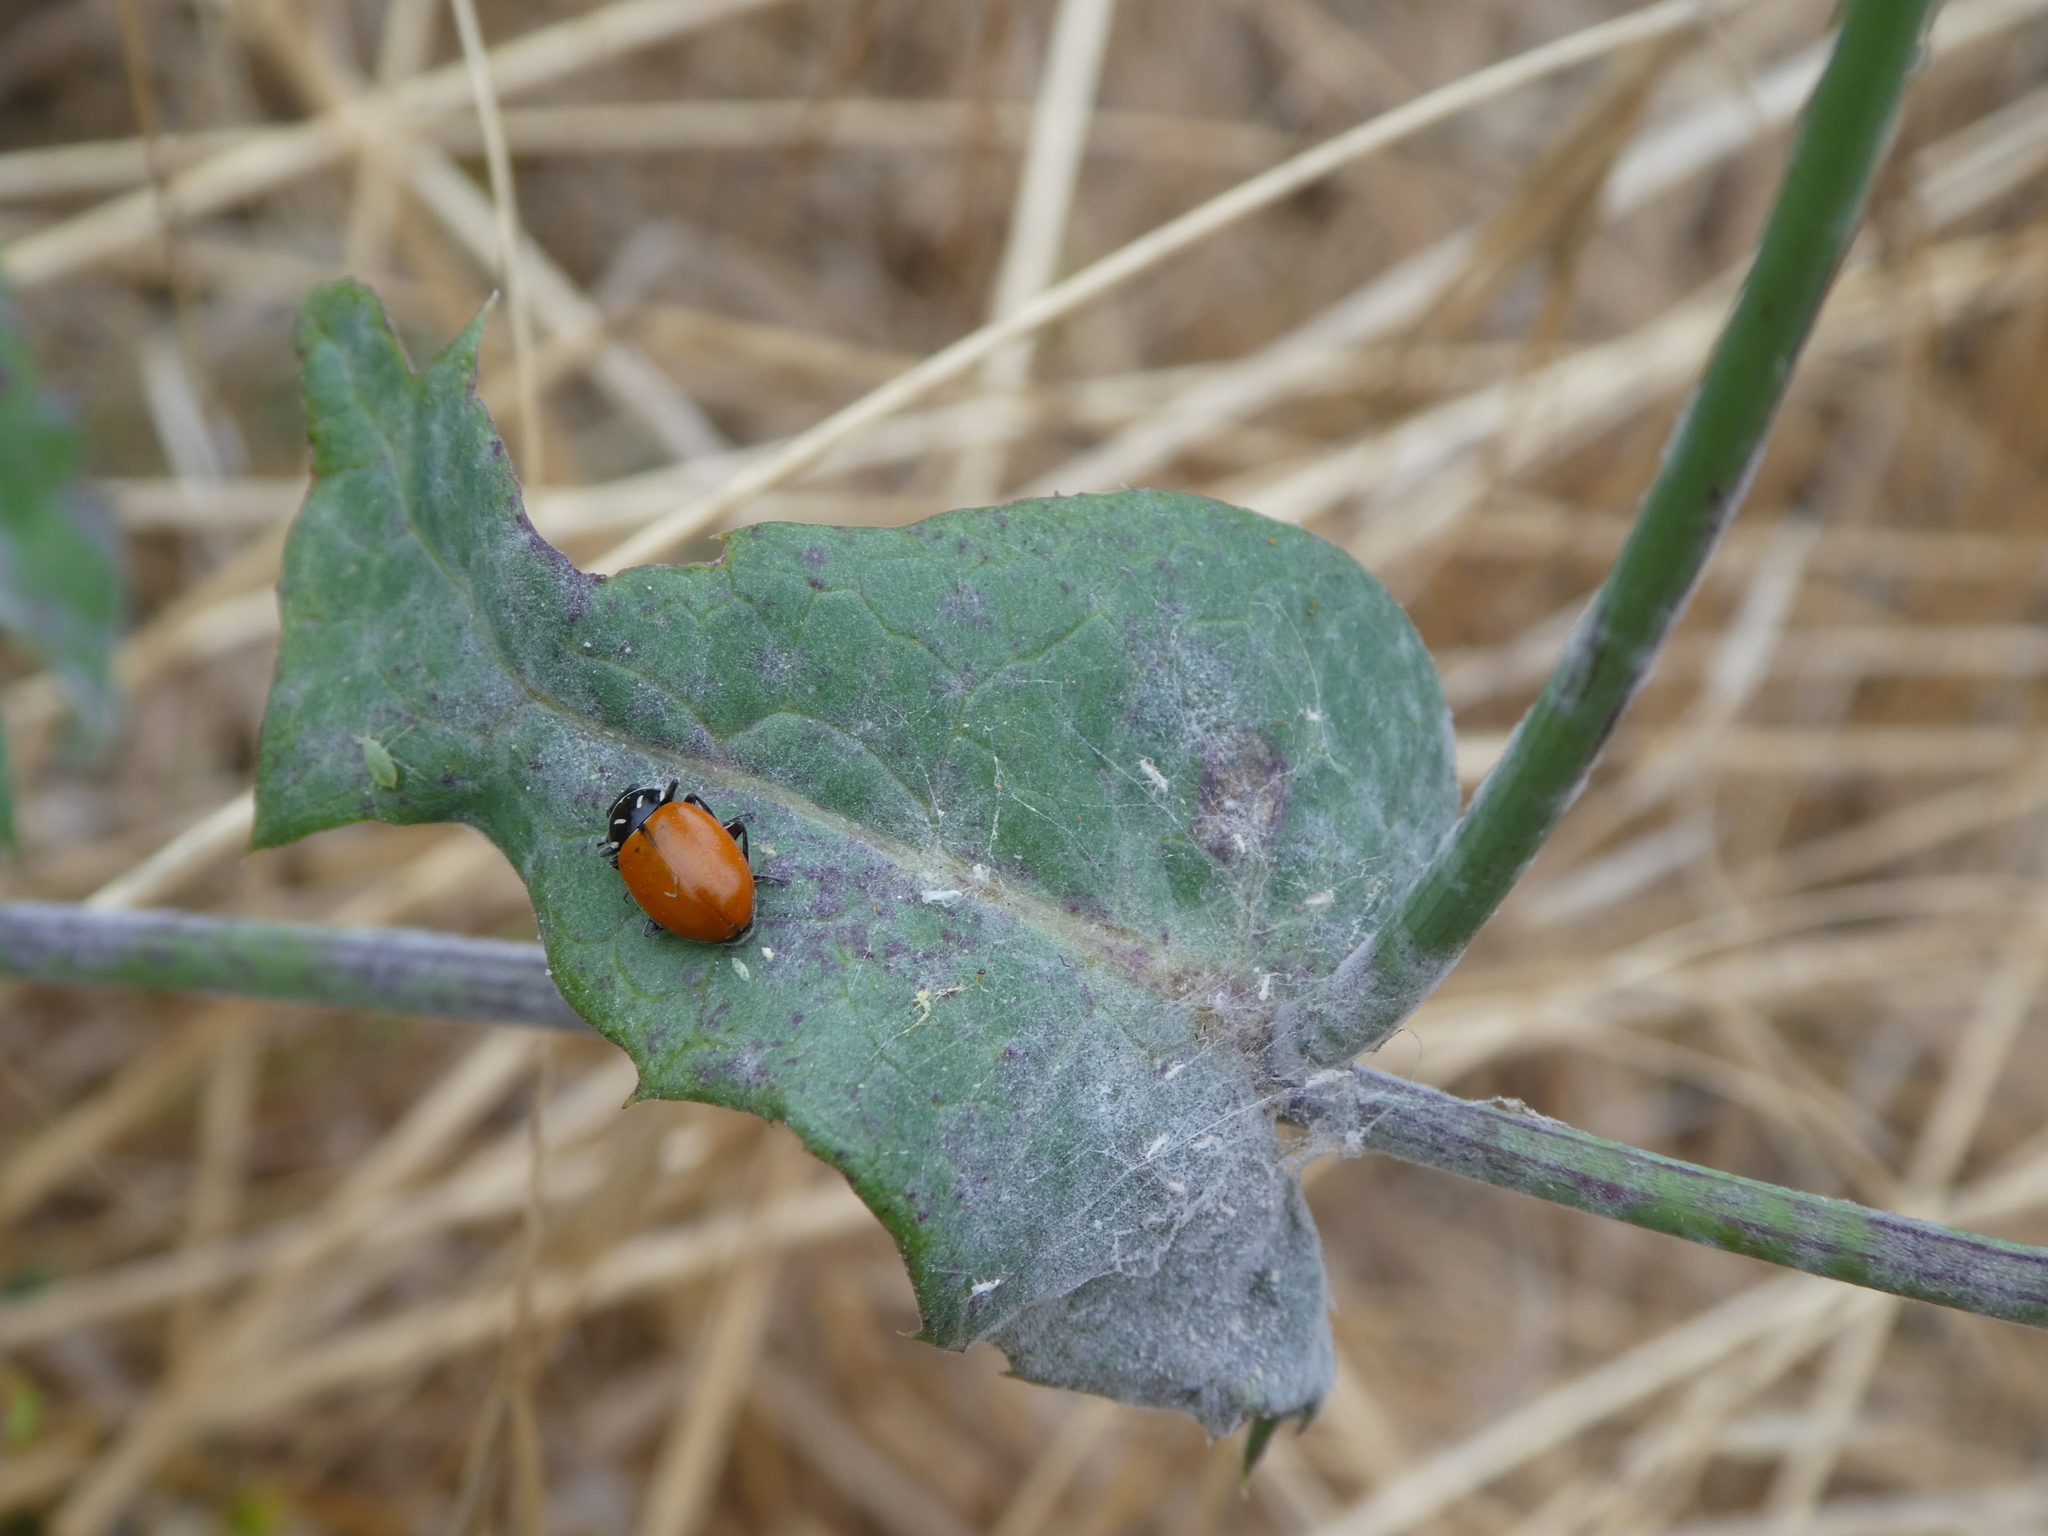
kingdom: Animalia
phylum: Arthropoda
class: Insecta
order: Coleoptera
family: Coccinellidae
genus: Hippodamia
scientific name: Hippodamia convergens
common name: Convergent lady beetle
